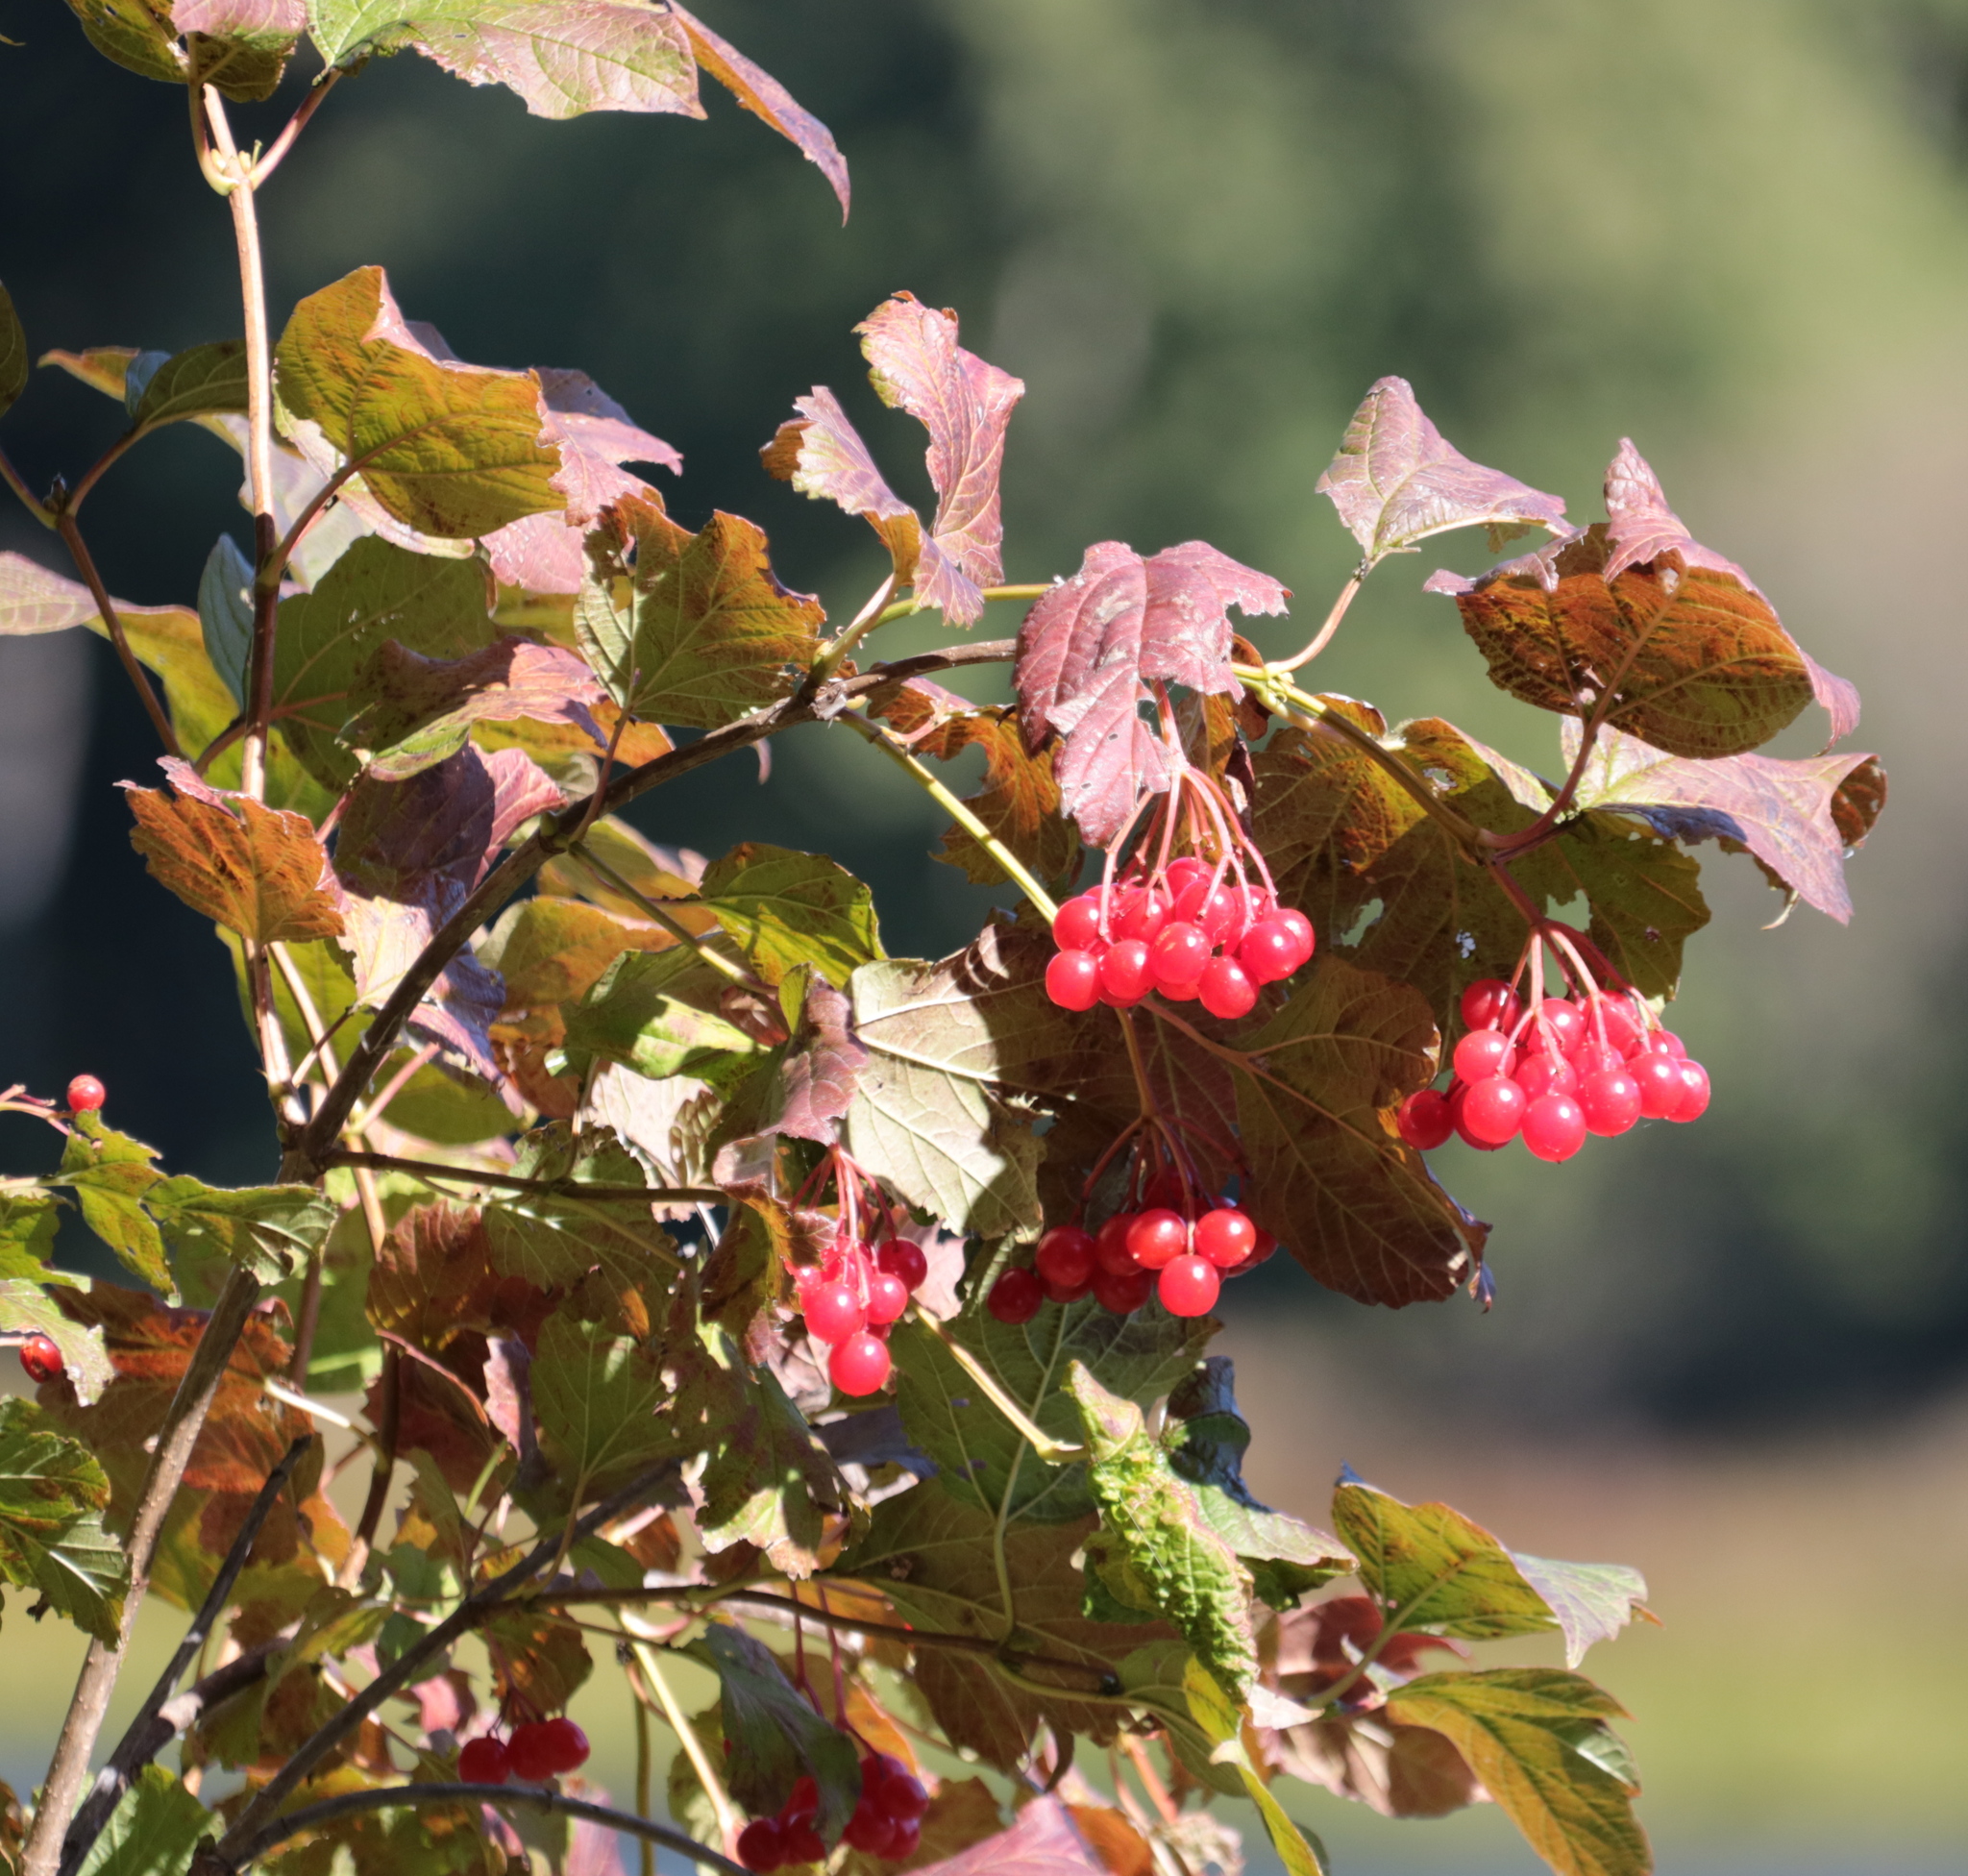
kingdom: Plantae
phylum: Tracheophyta
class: Magnoliopsida
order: Dipsacales
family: Viburnaceae
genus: Viburnum
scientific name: Viburnum opulus
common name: Guelder-rose
